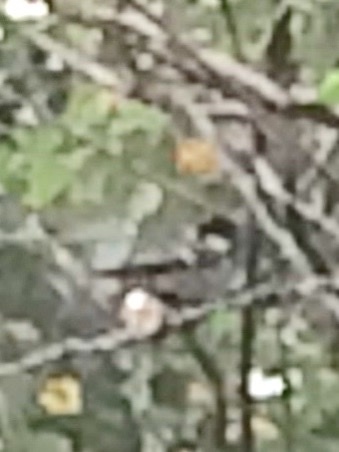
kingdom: Animalia
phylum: Chordata
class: Aves
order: Passeriformes
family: Paridae
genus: Parus
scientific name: Parus cinereus
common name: Cinereous tit
